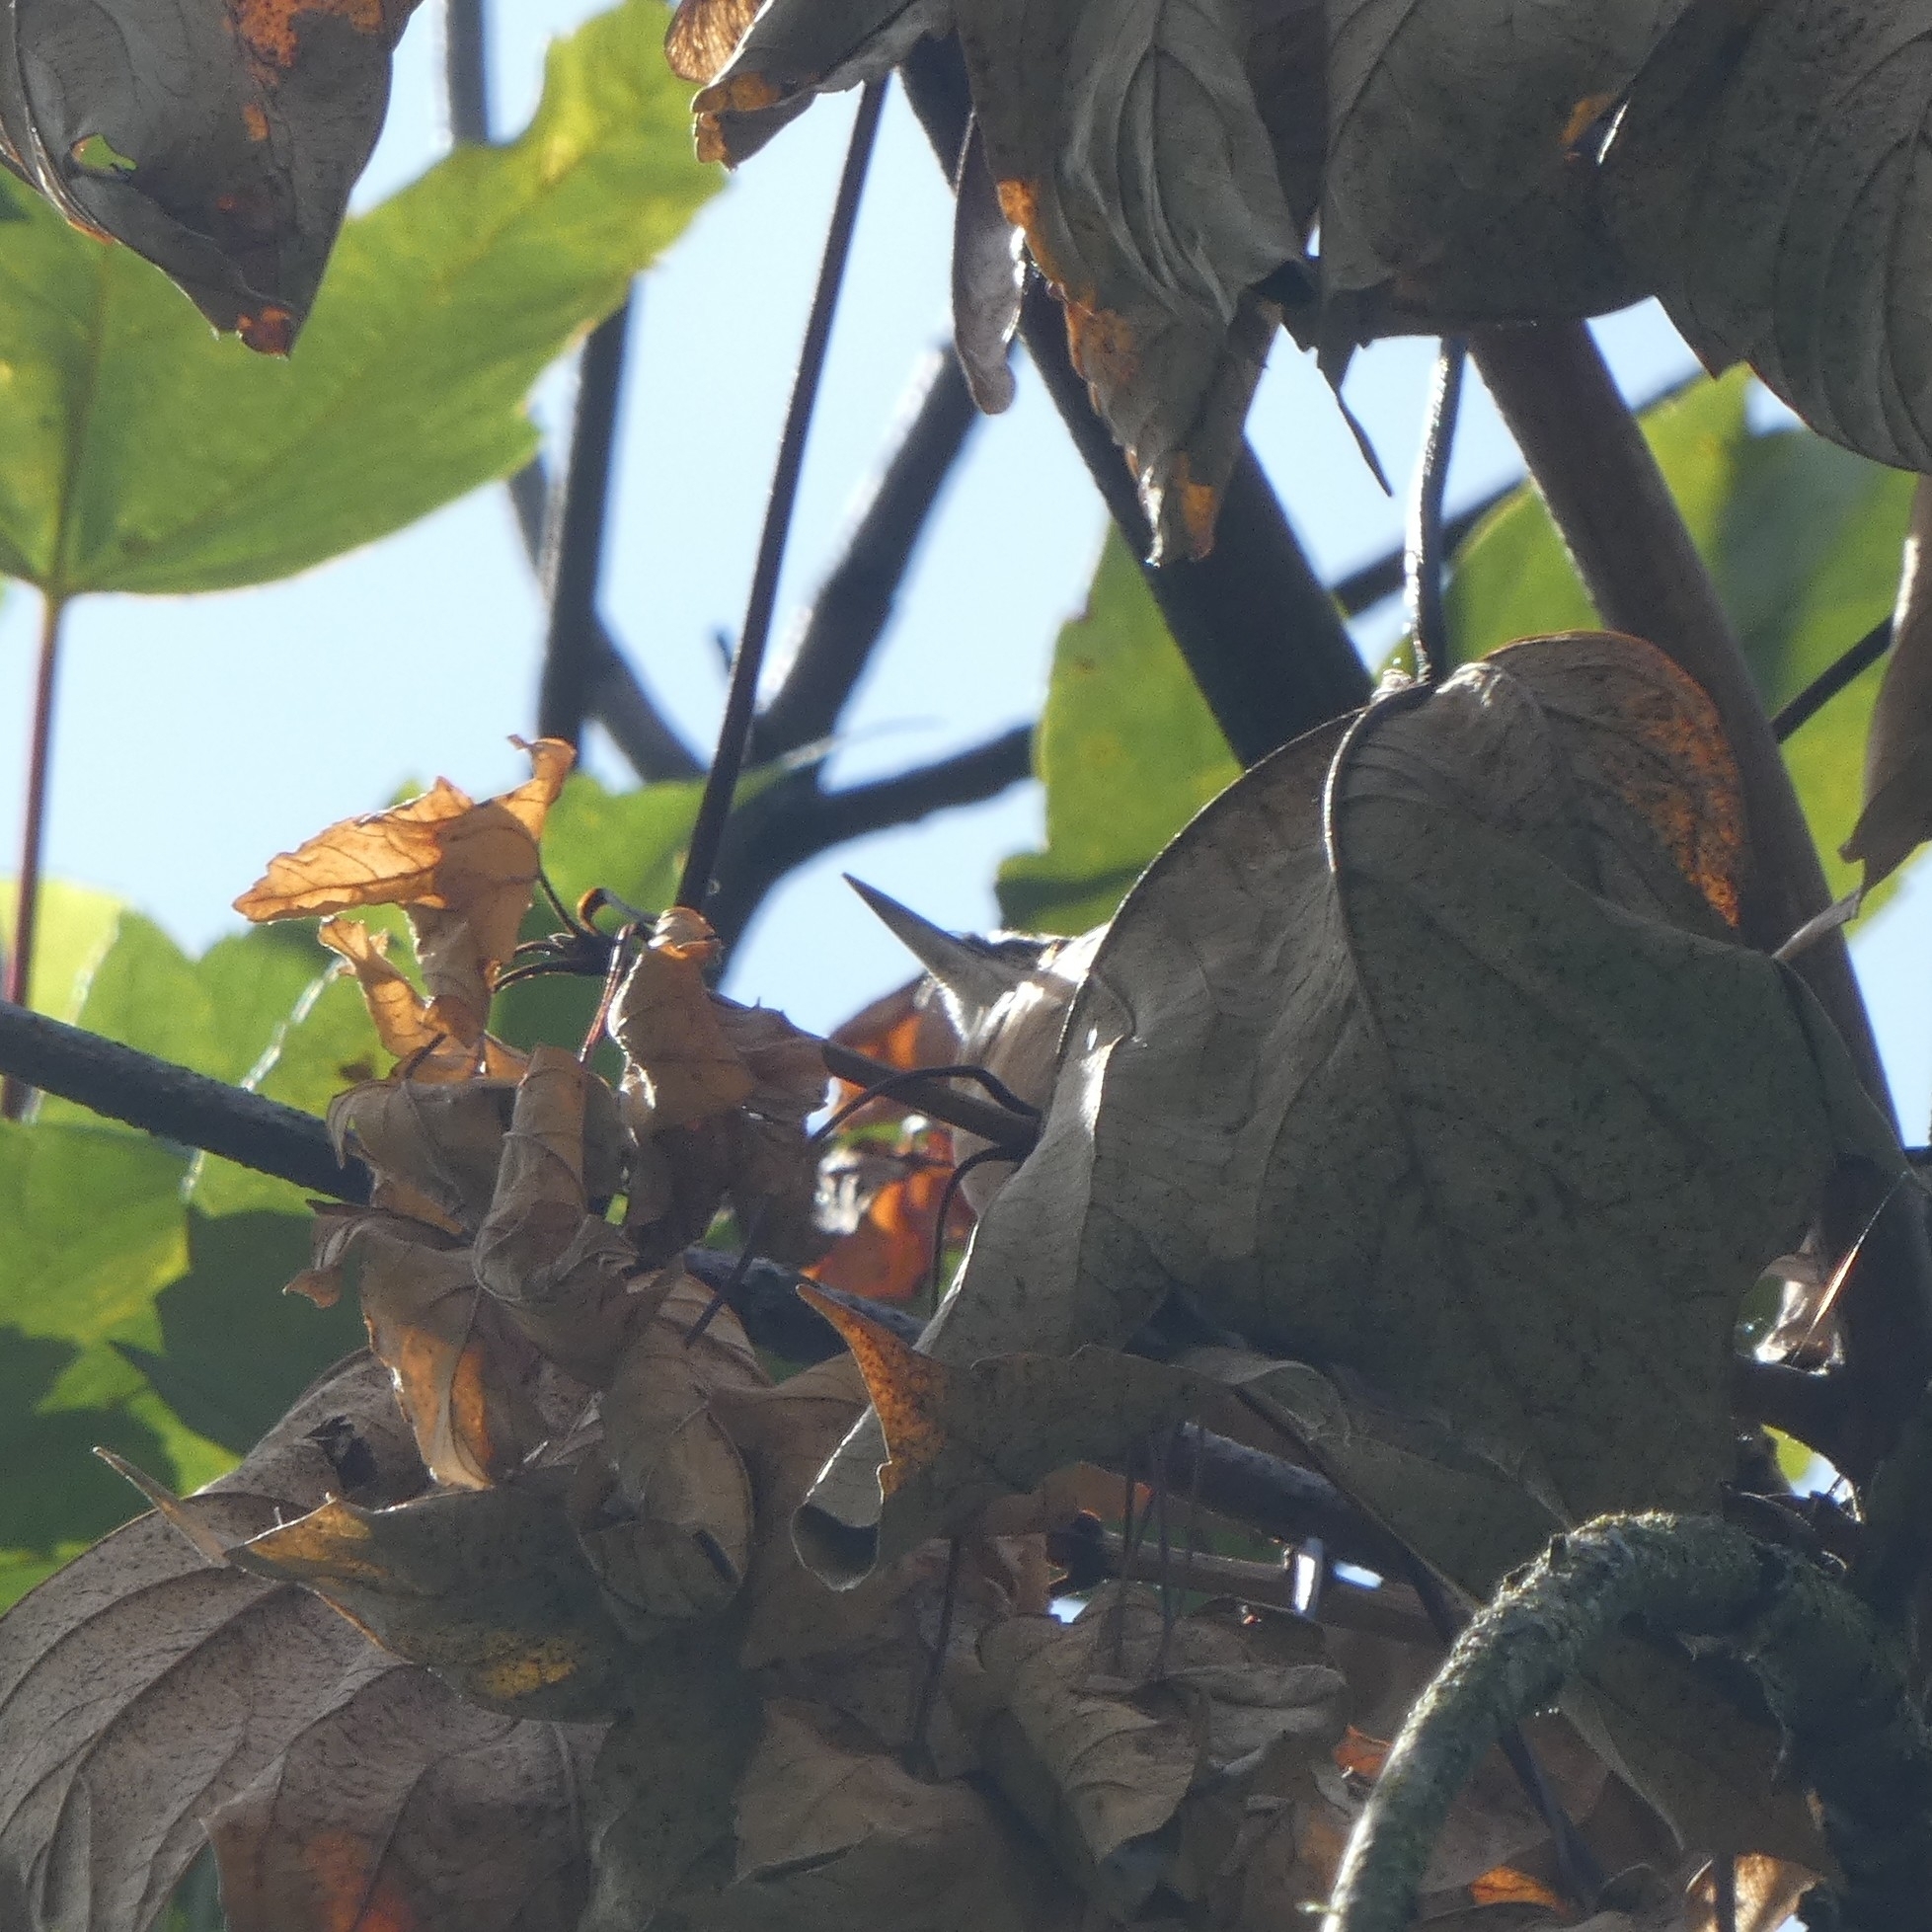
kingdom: Animalia
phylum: Chordata
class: Aves
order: Passeriformes
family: Sittidae
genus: Sitta
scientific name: Sitta europaea
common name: Eurasian nuthatch
